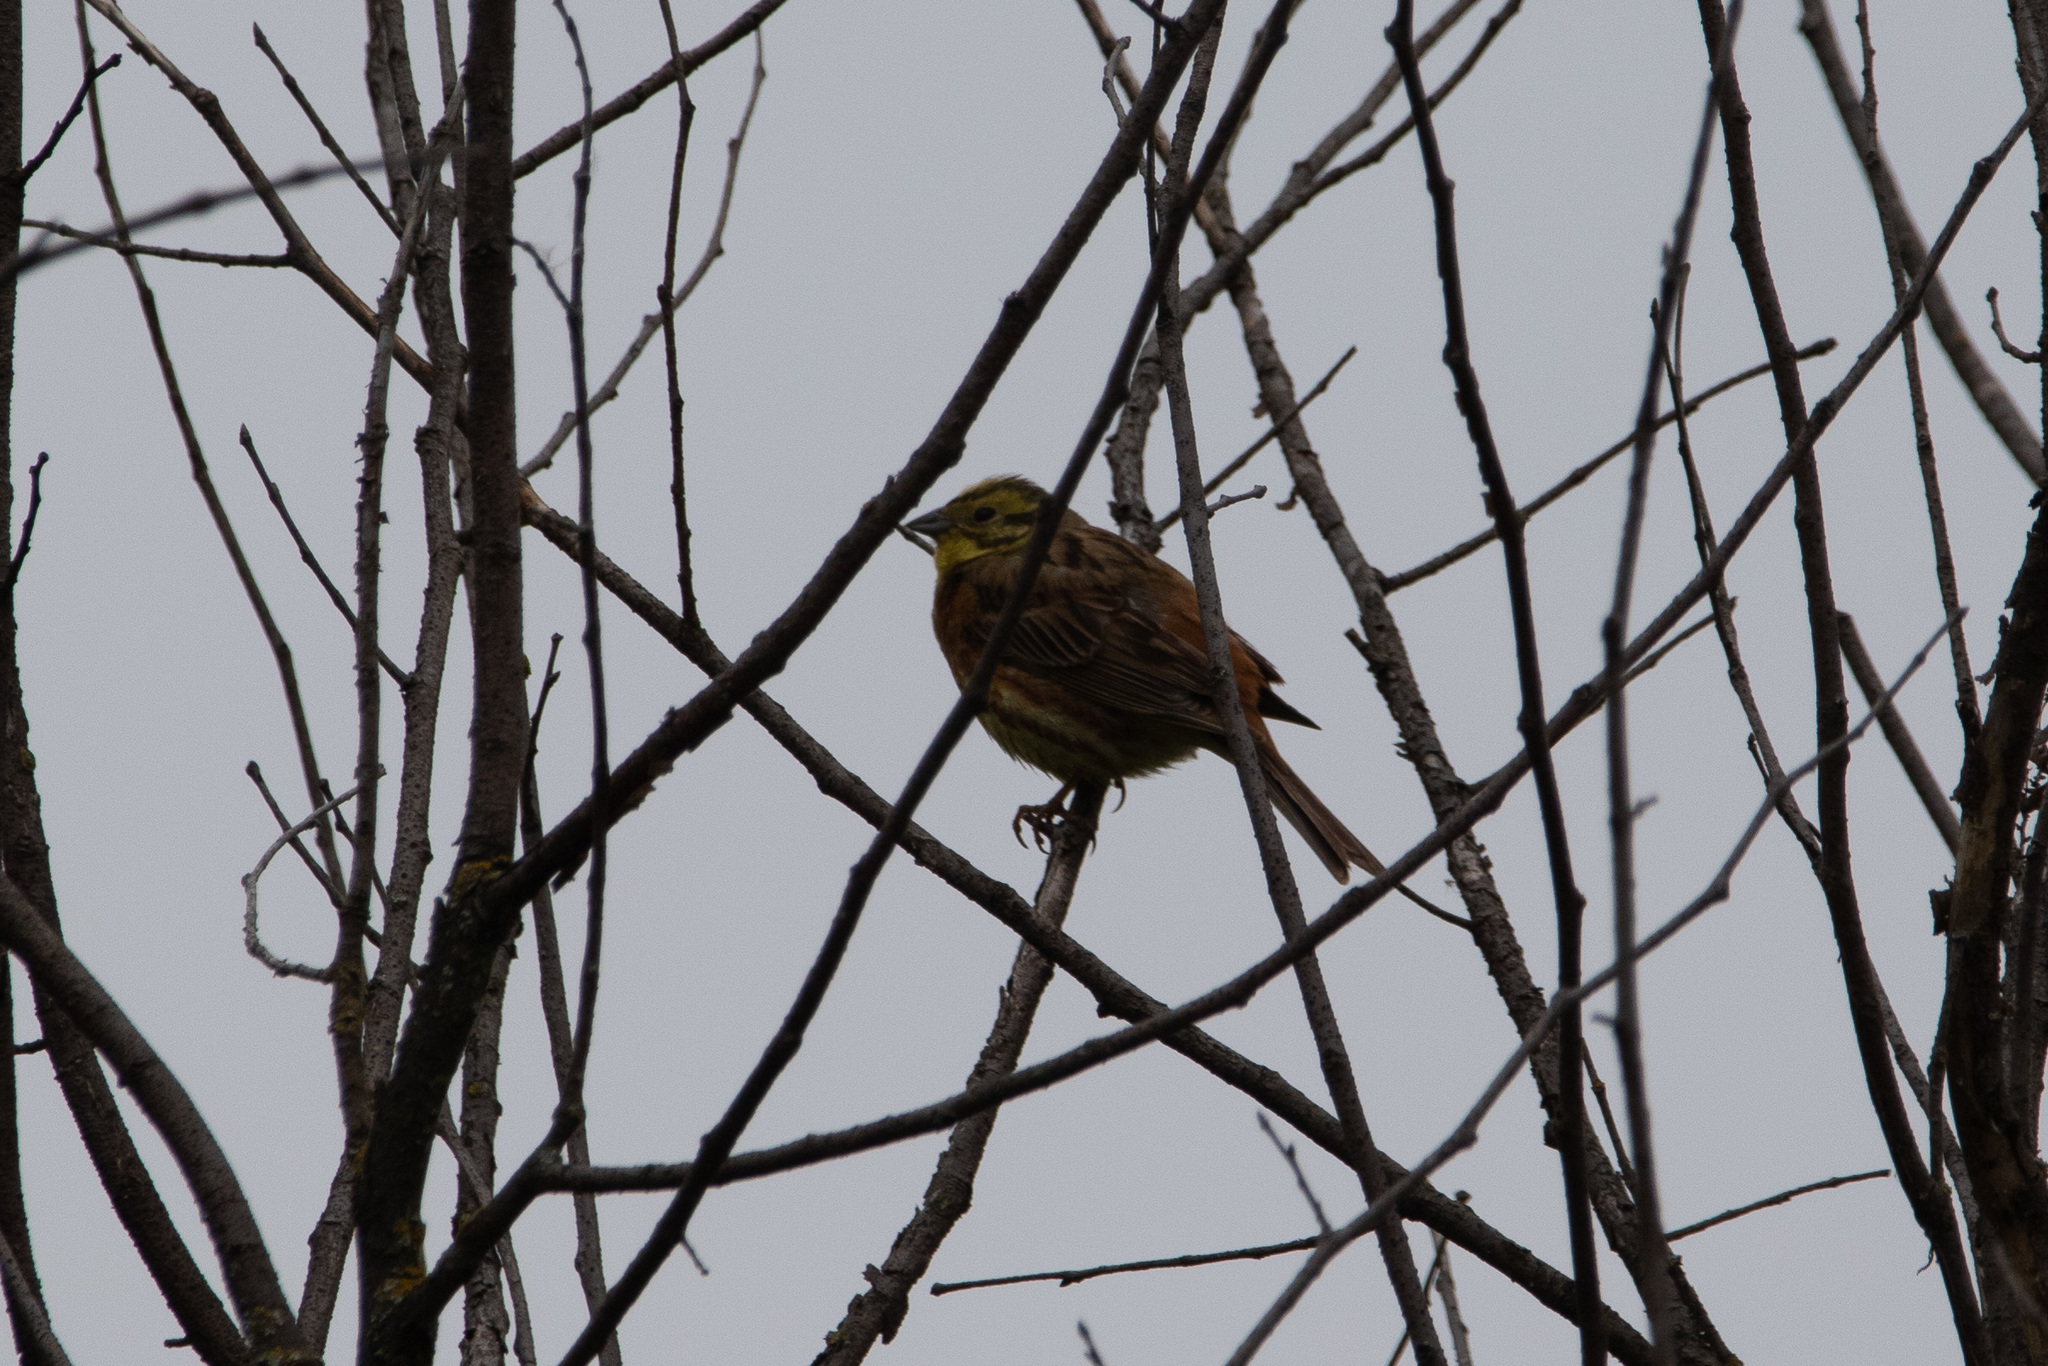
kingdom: Animalia
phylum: Chordata
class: Aves
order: Passeriformes
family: Emberizidae
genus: Emberiza
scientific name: Emberiza citrinella
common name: Yellowhammer
